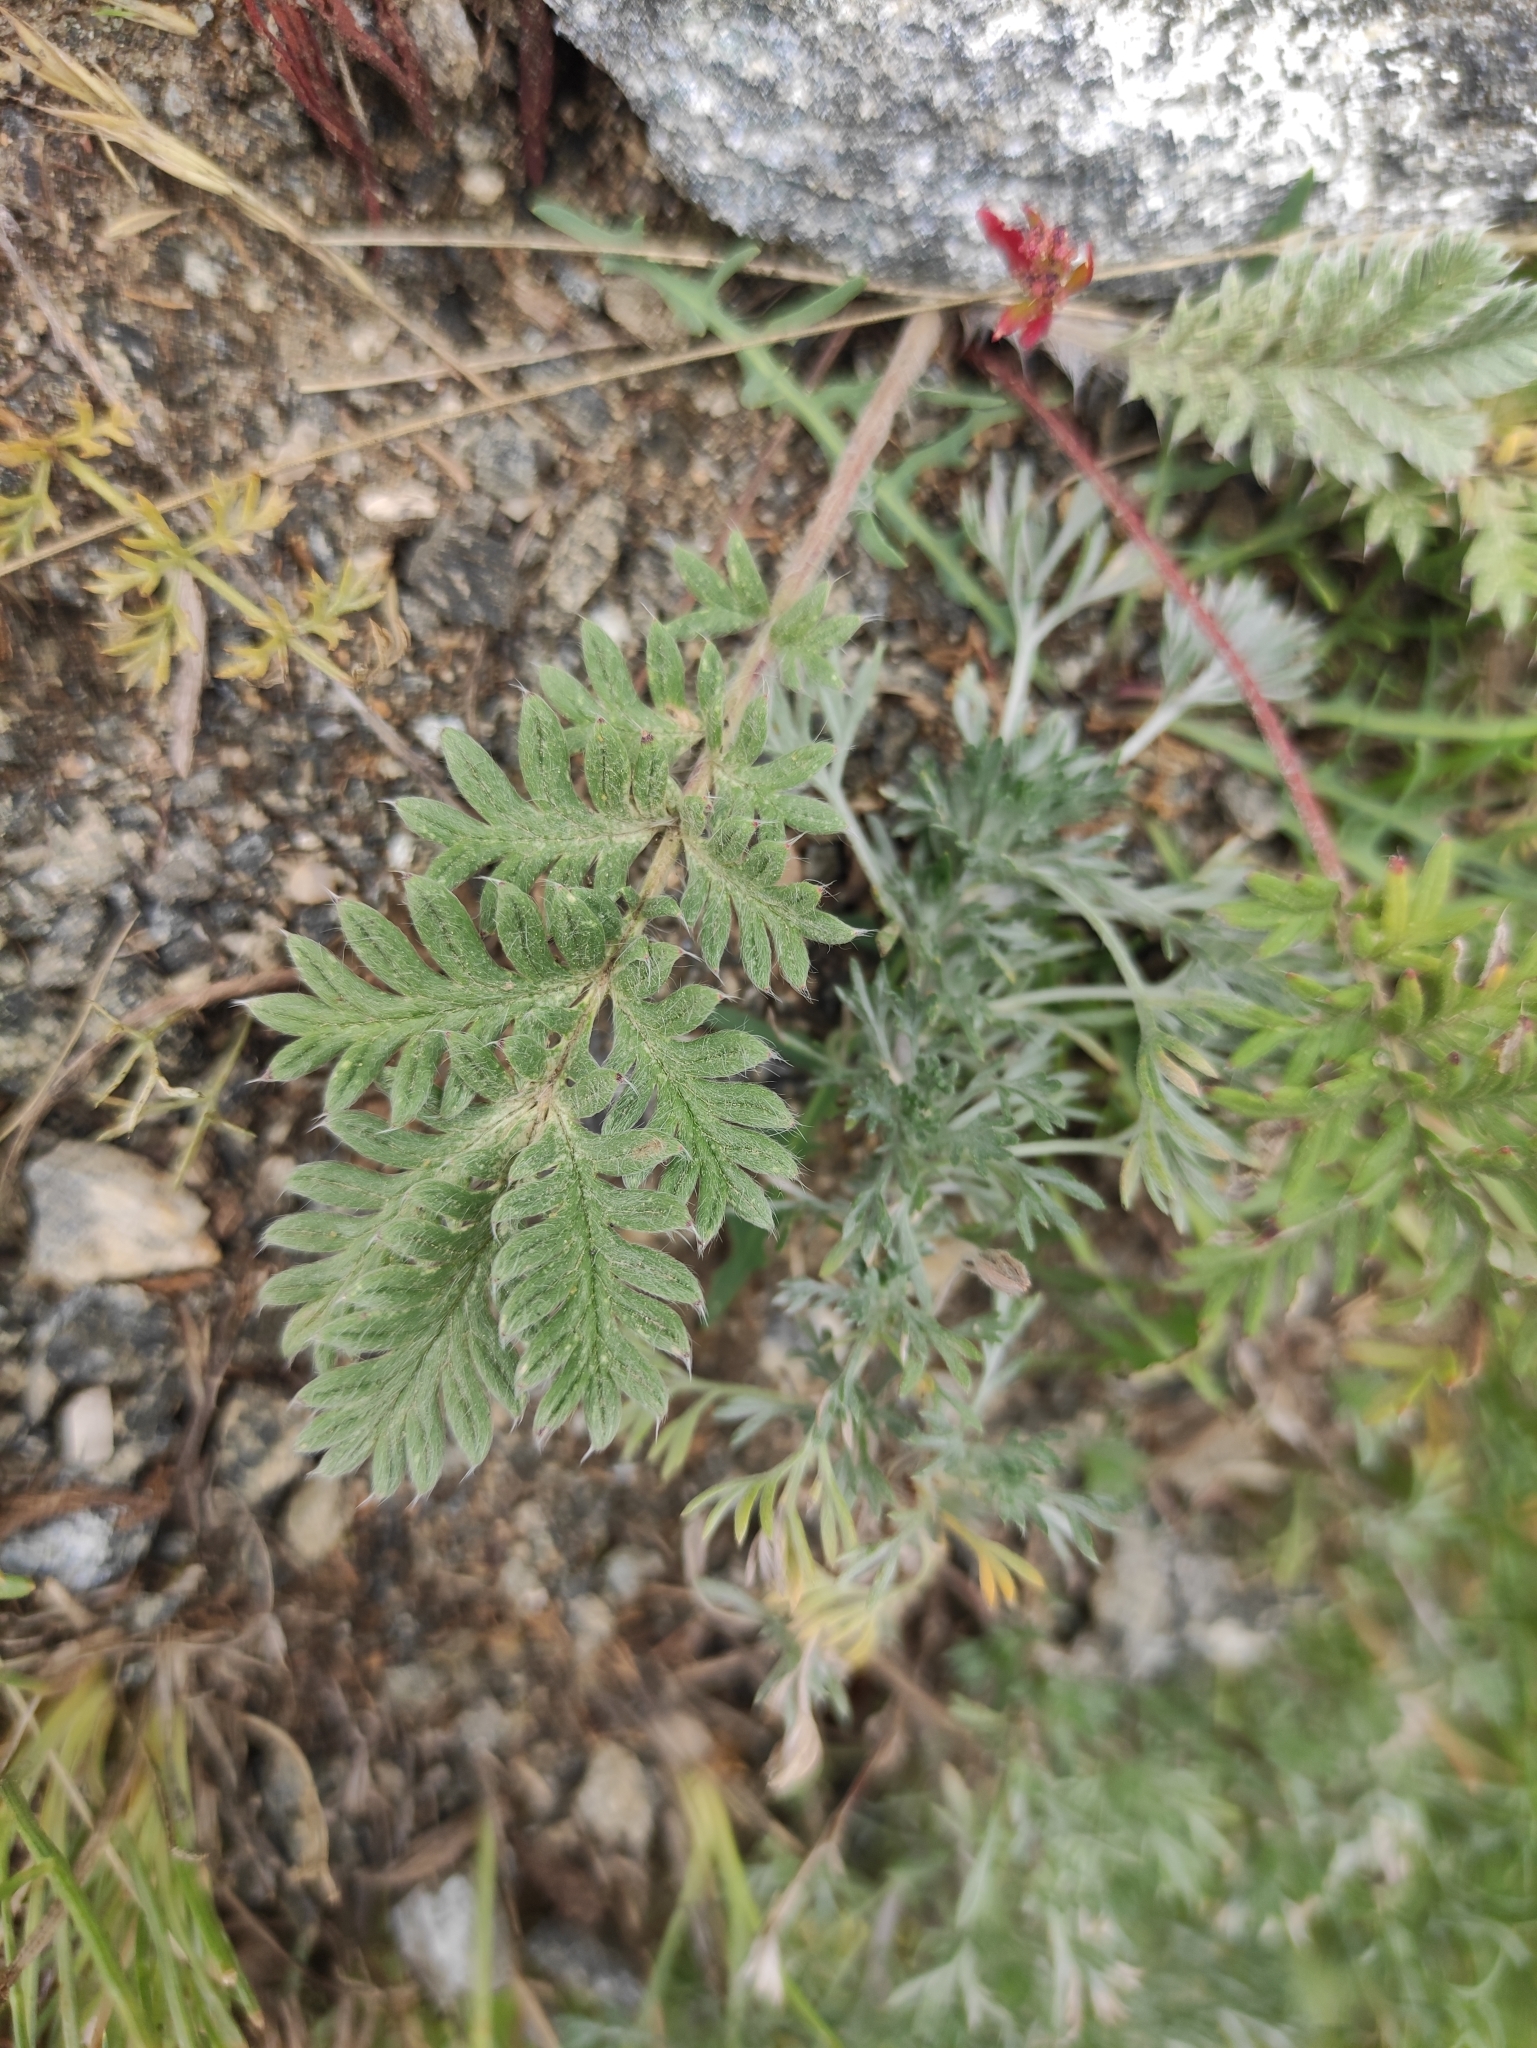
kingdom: Plantae
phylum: Tracheophyta
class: Magnoliopsida
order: Rosales
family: Rosaceae
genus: Potentilla
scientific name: Potentilla sericea
